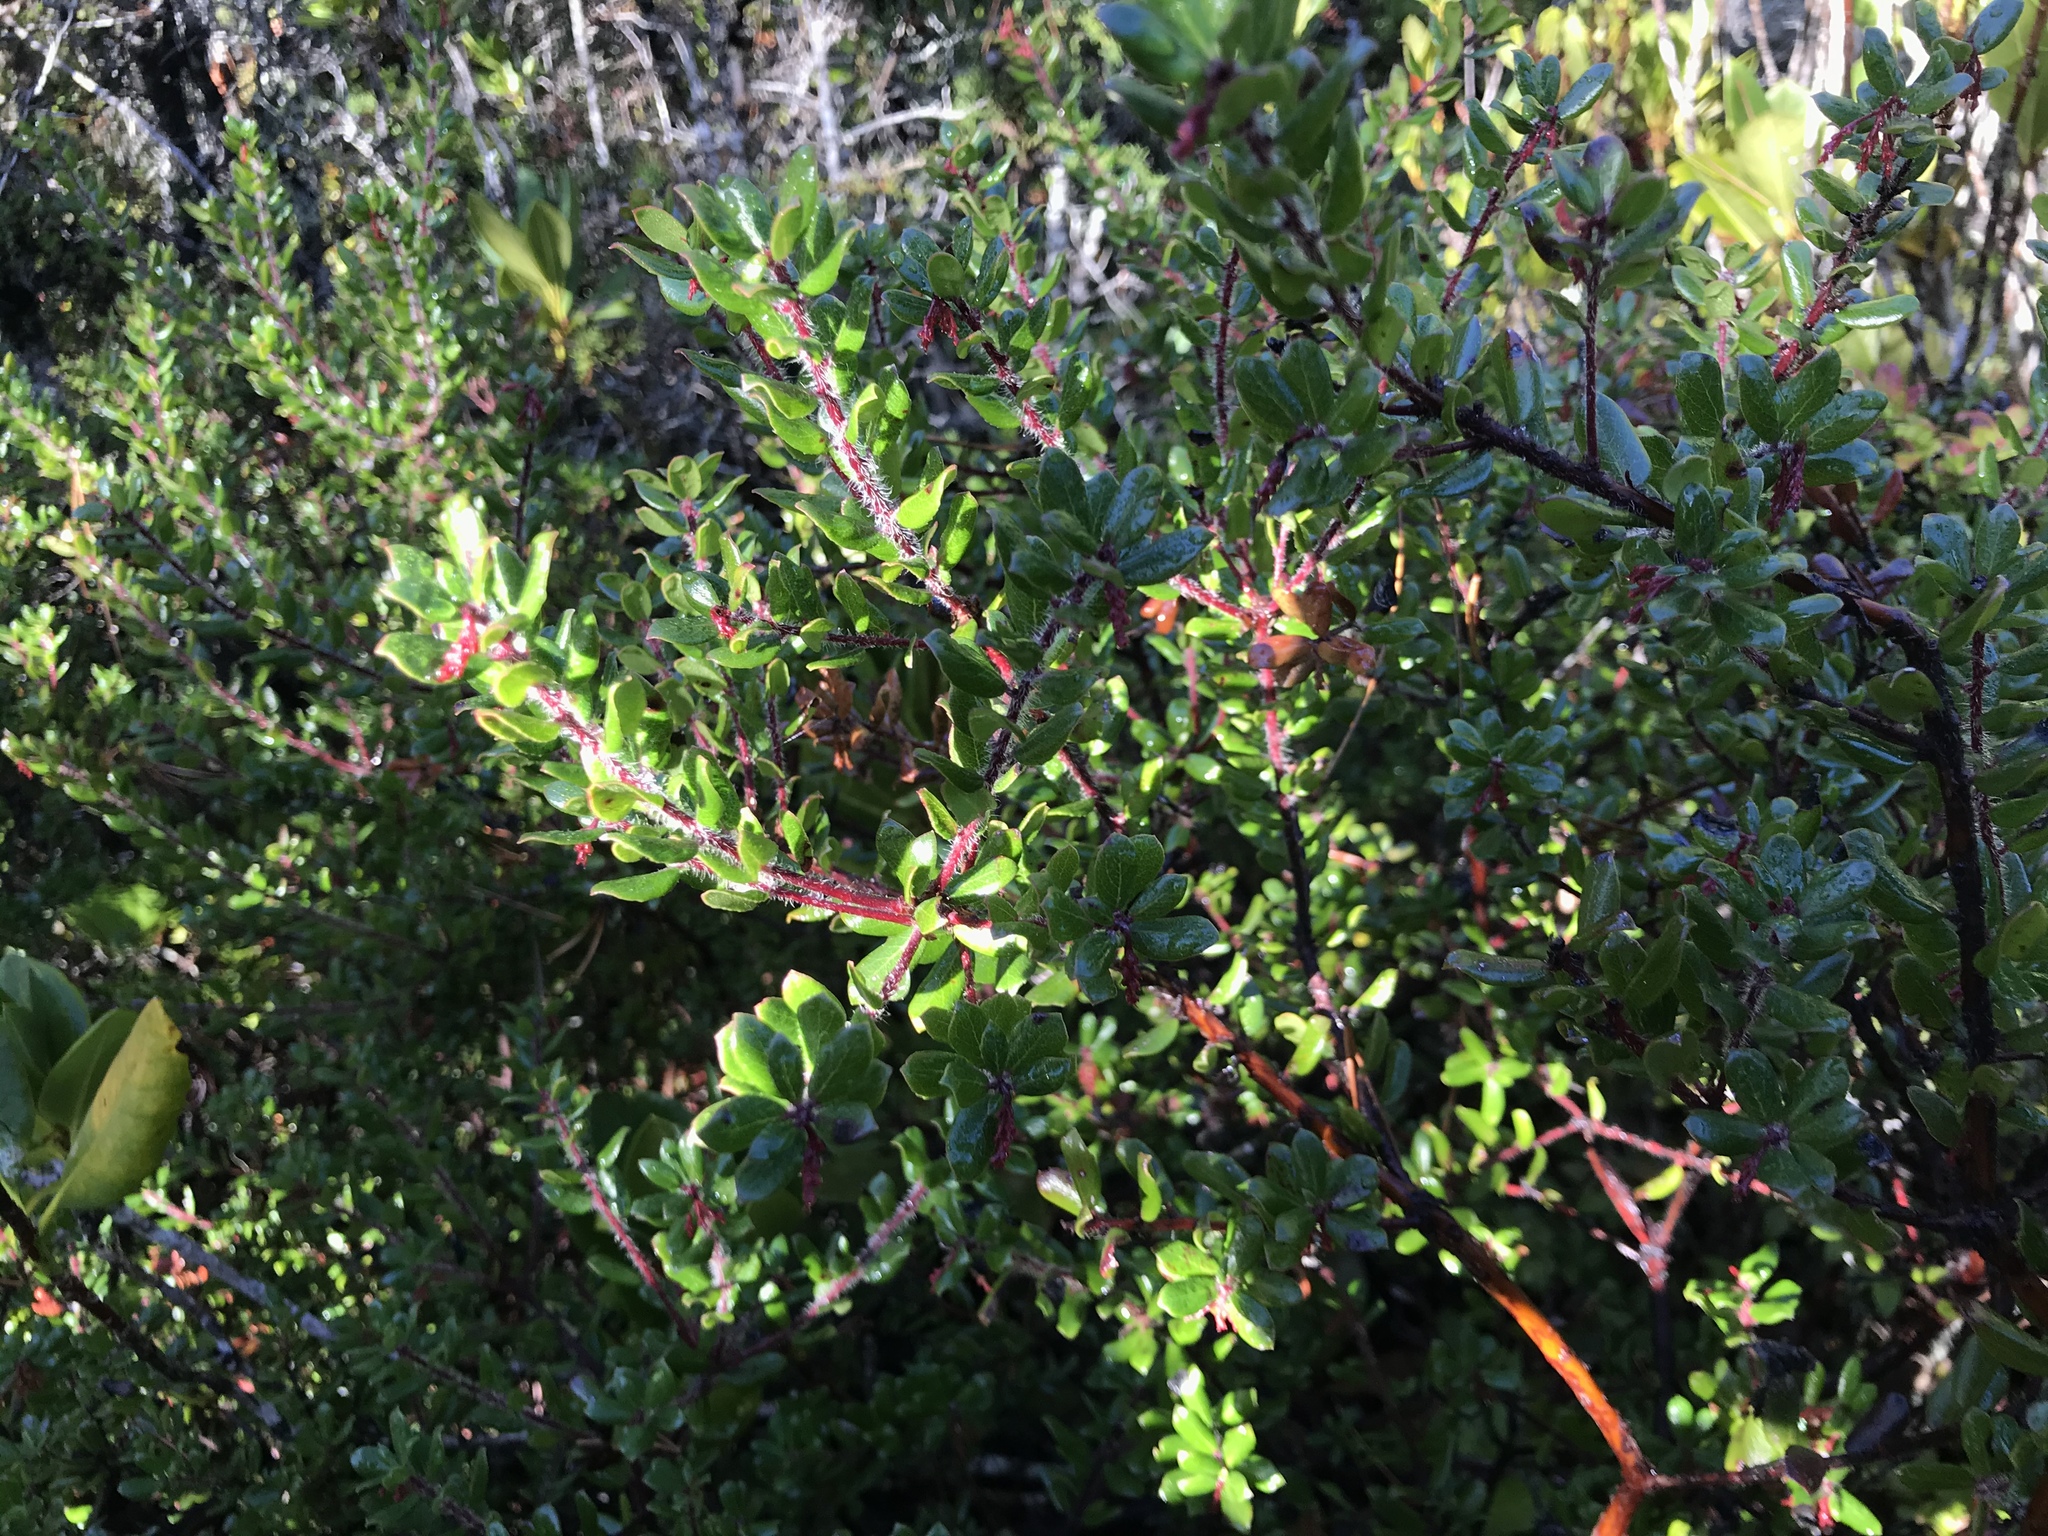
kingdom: Plantae
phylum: Tracheophyta
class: Magnoliopsida
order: Ericales
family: Ericaceae
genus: Arctostaphylos
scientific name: Arctostaphylos nummularia
